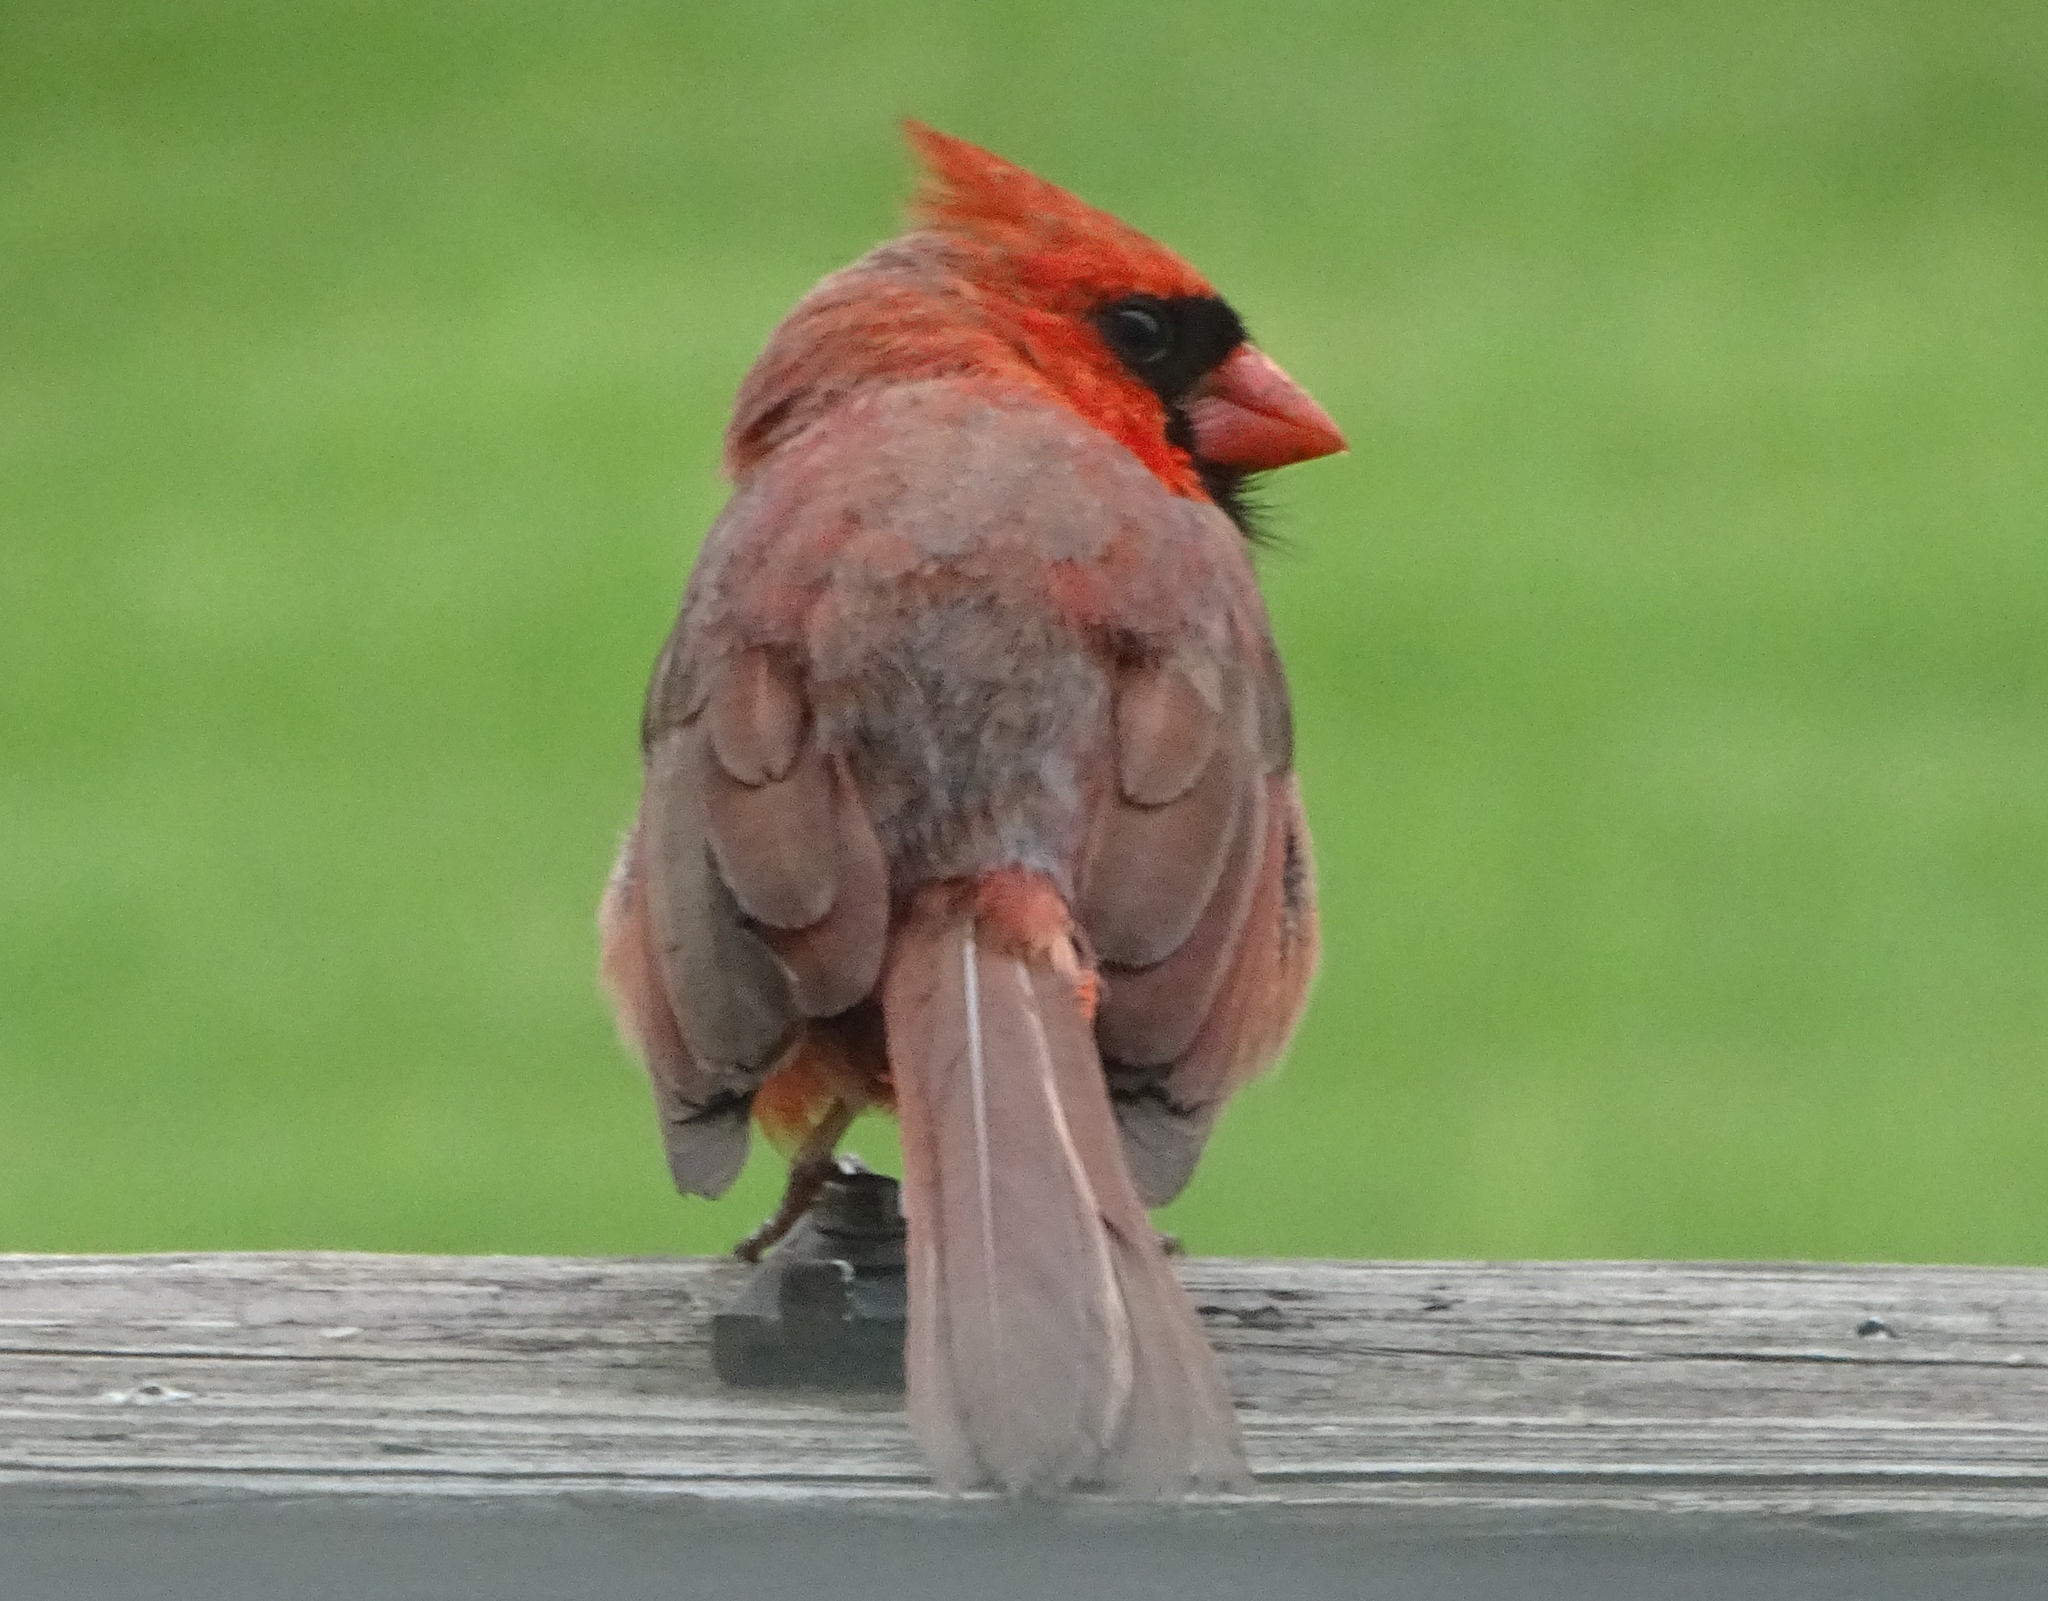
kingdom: Animalia
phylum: Chordata
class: Aves
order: Passeriformes
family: Cardinalidae
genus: Cardinalis
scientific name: Cardinalis cardinalis
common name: Northern cardinal
